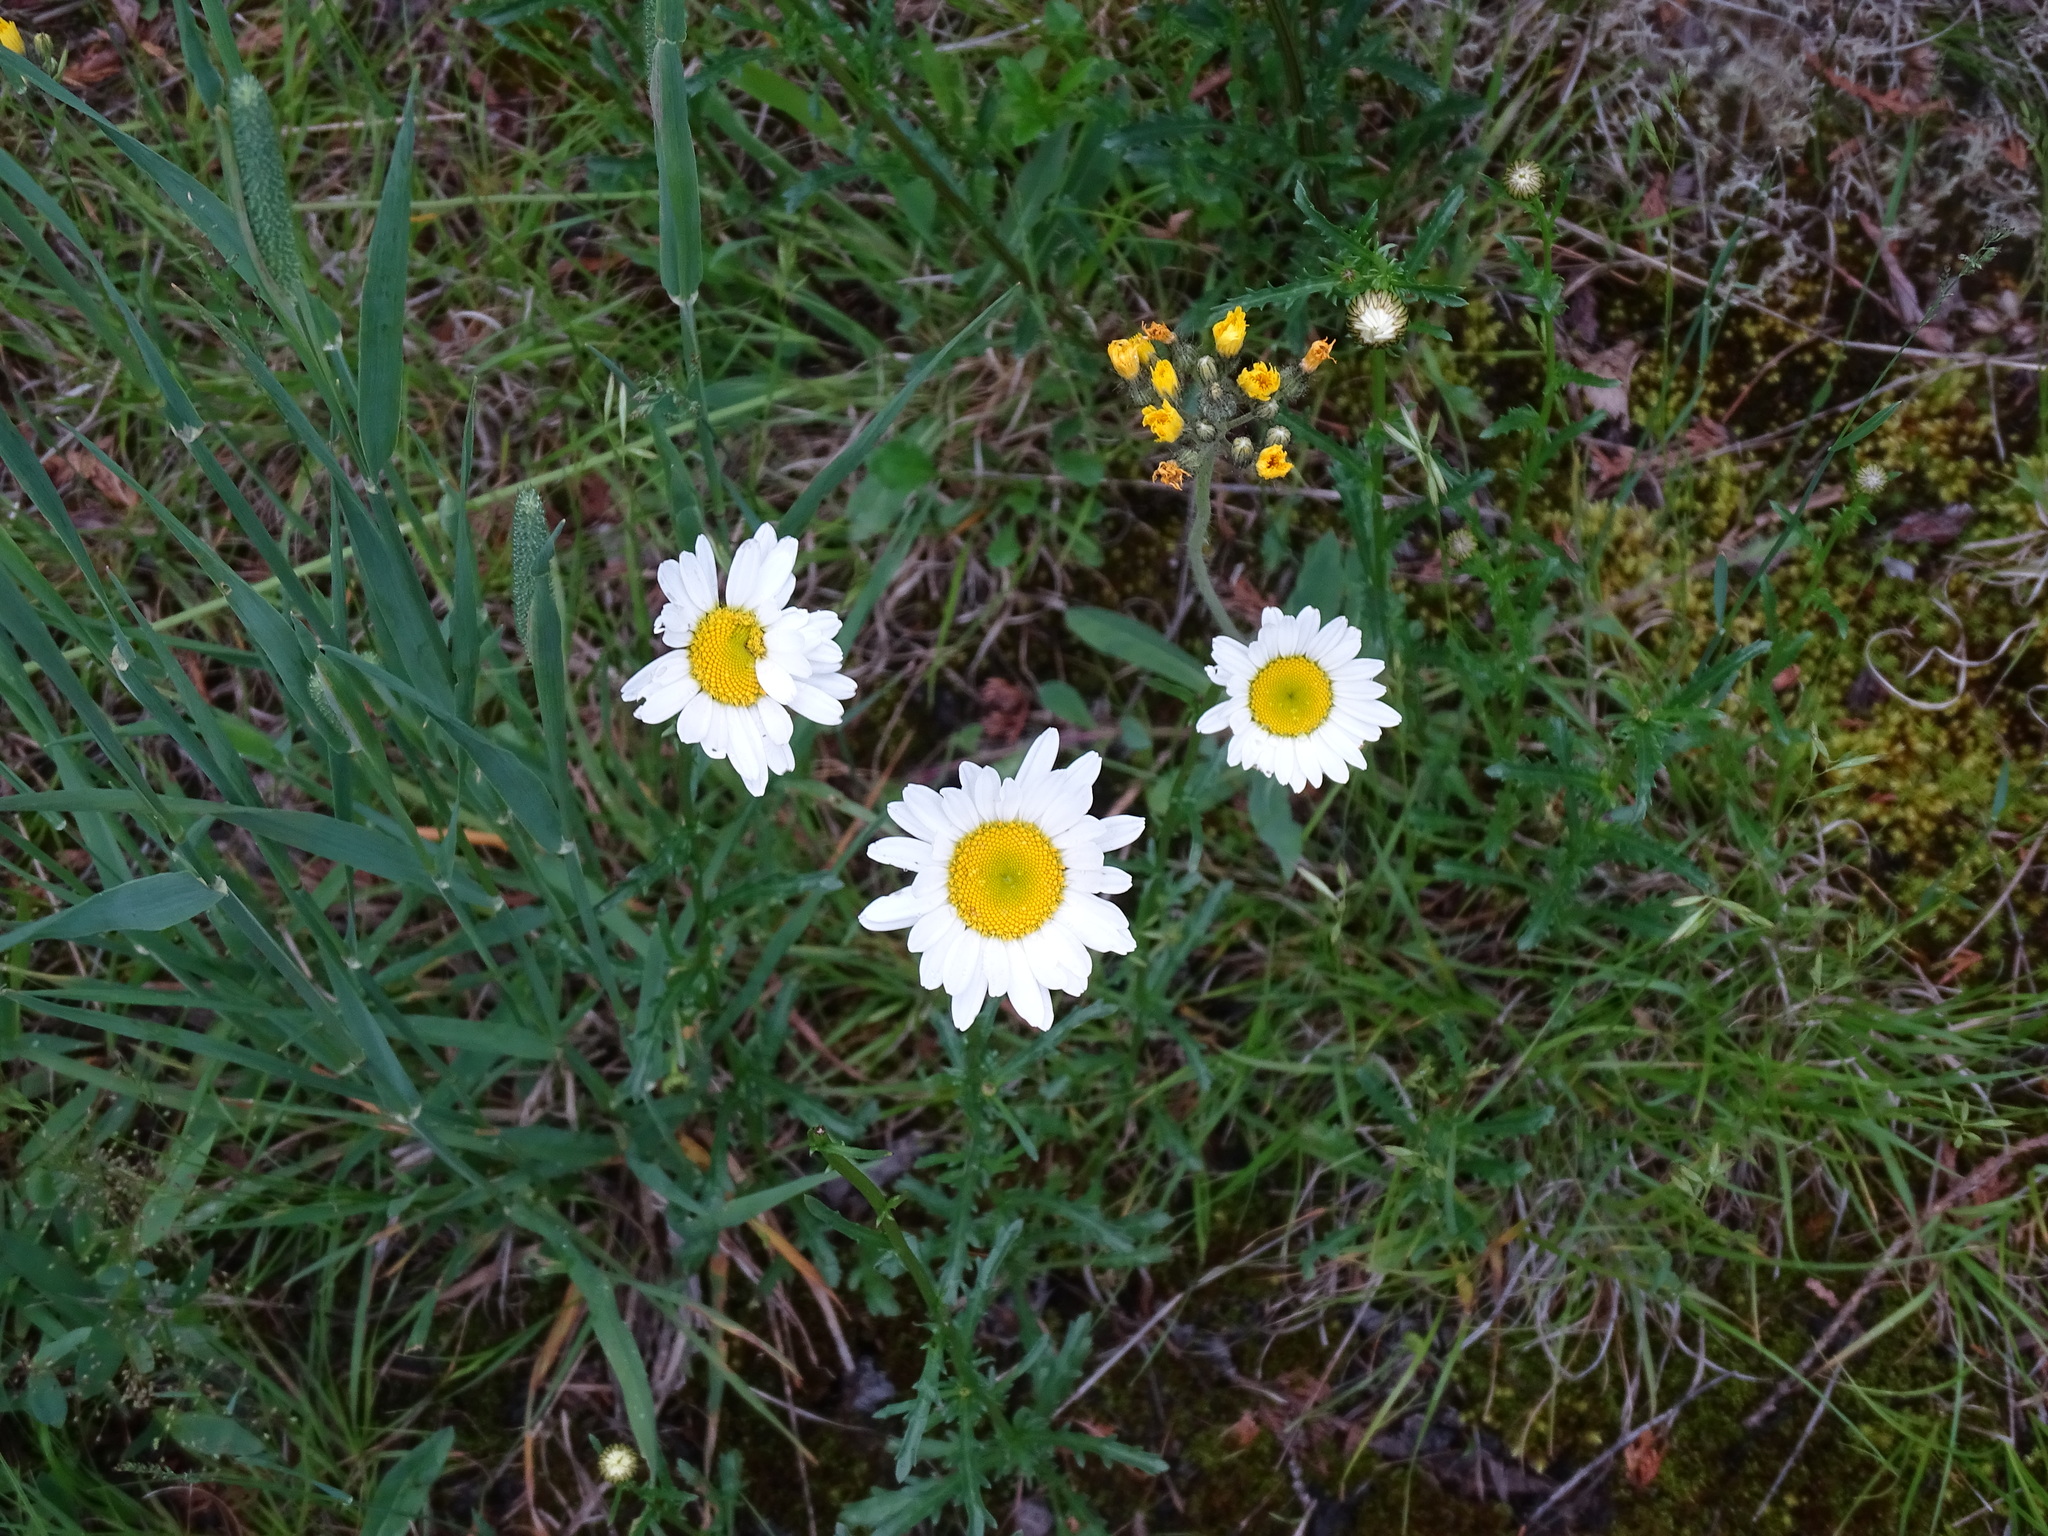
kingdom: Plantae
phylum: Tracheophyta
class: Magnoliopsida
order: Asterales
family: Asteraceae
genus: Leucanthemum
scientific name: Leucanthemum vulgare
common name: Oxeye daisy
